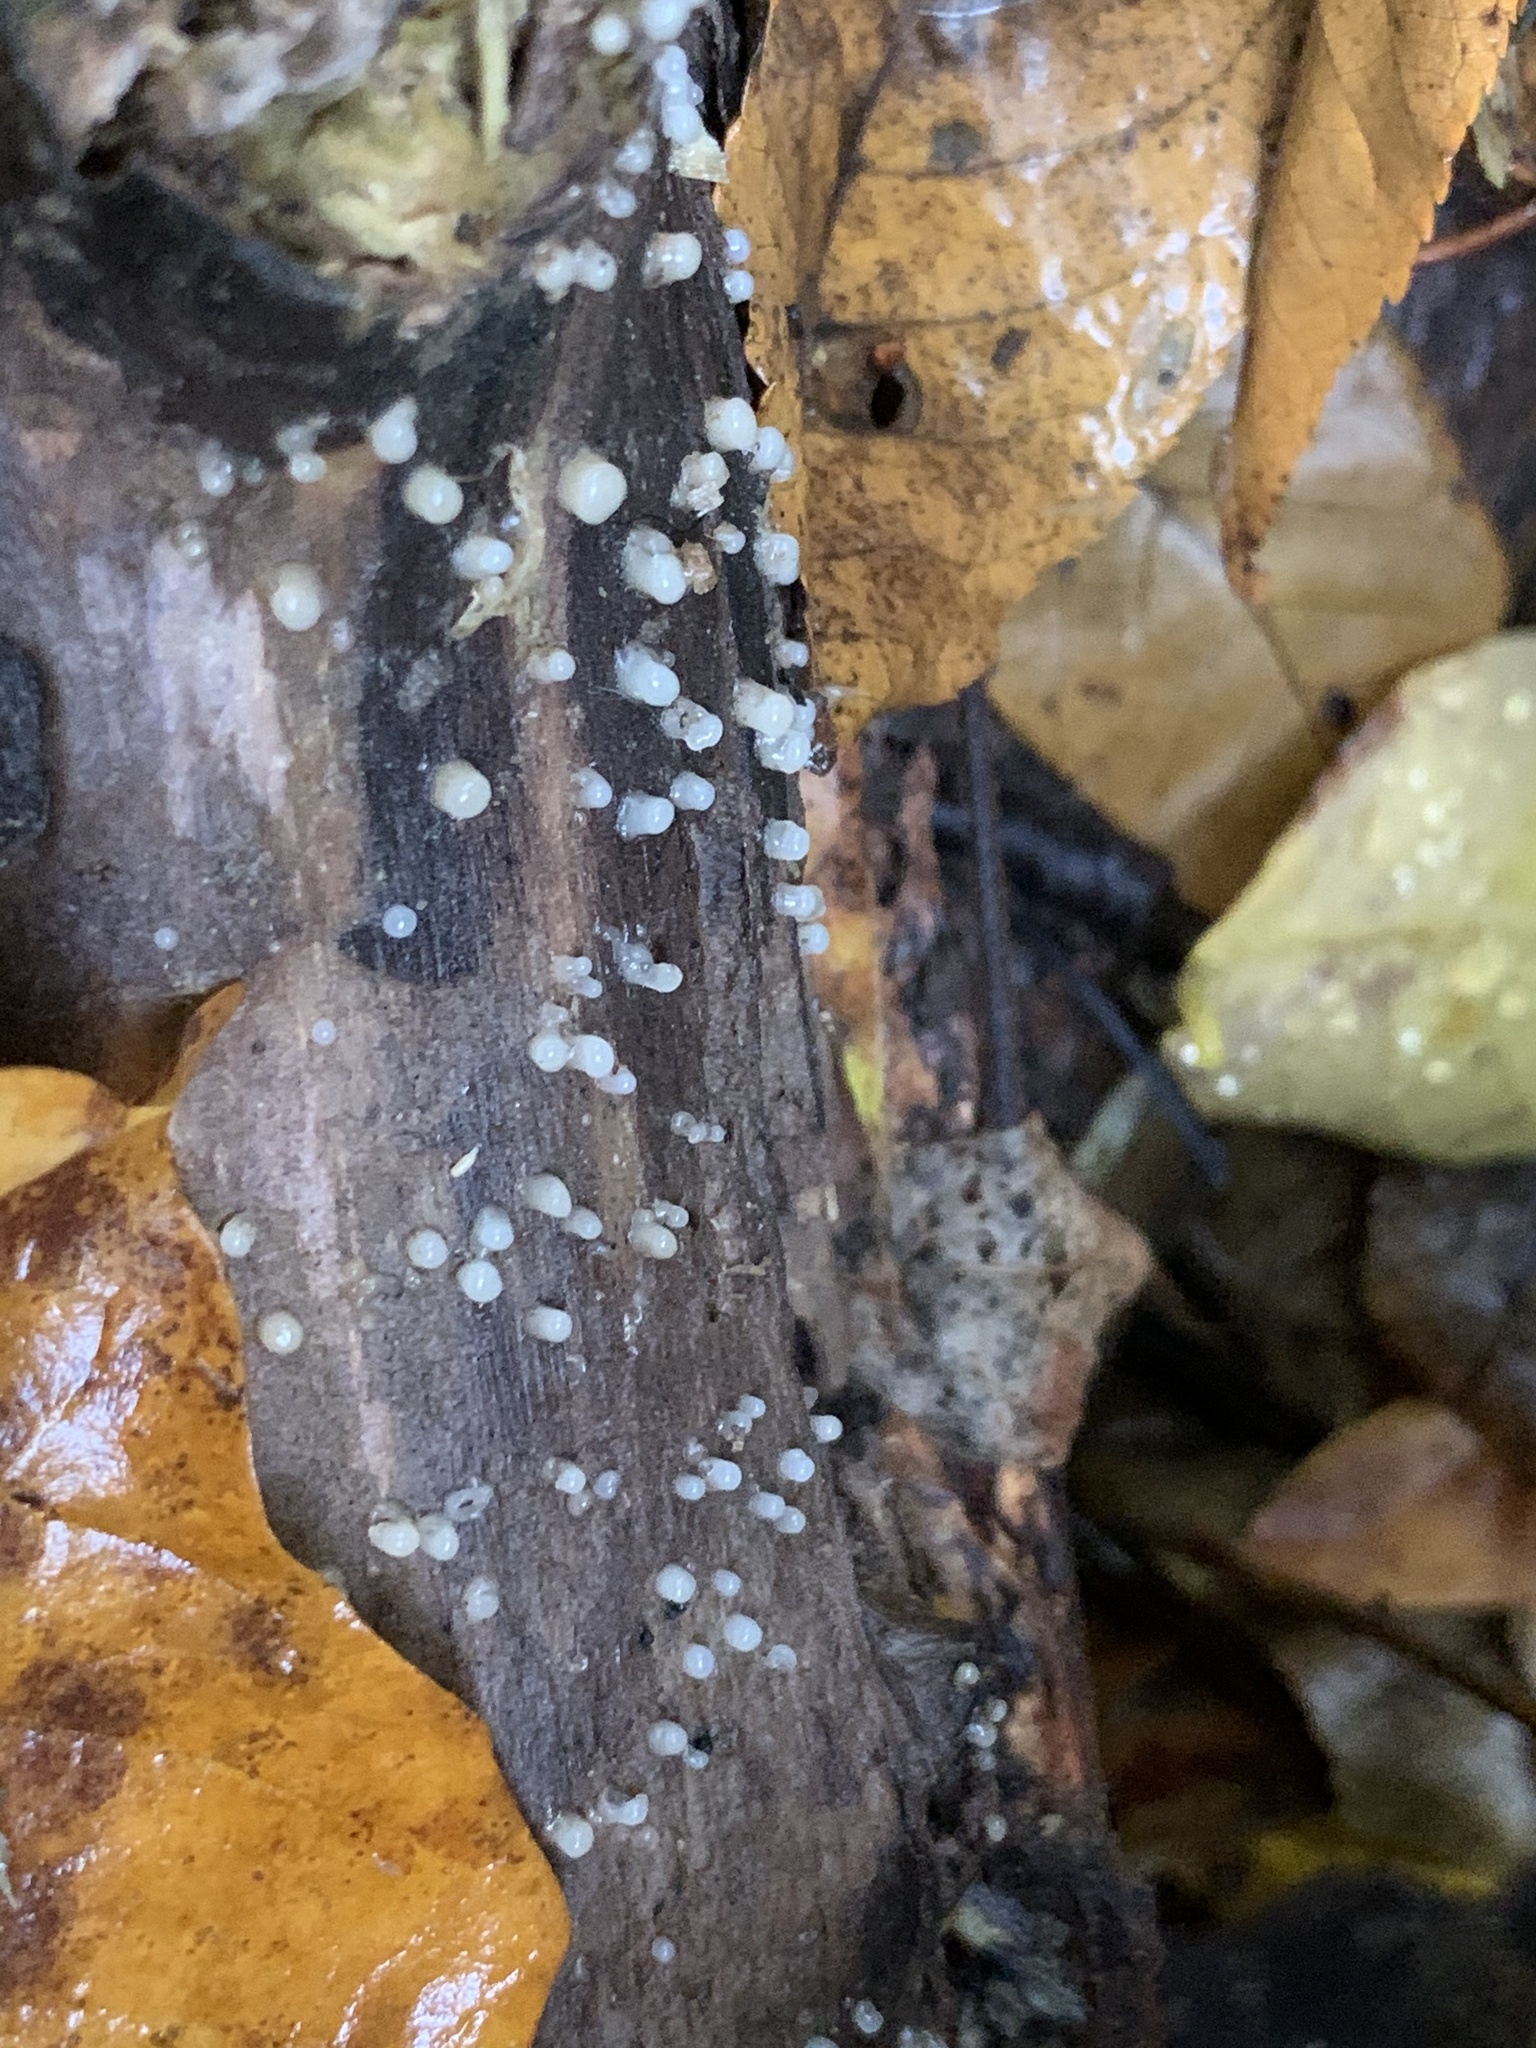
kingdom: Fungi
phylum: Basidiomycota
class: Atractiellomycetes
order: Atractiellales
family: Phleogenaceae
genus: Helicogloea
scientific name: Helicogloea compressa
